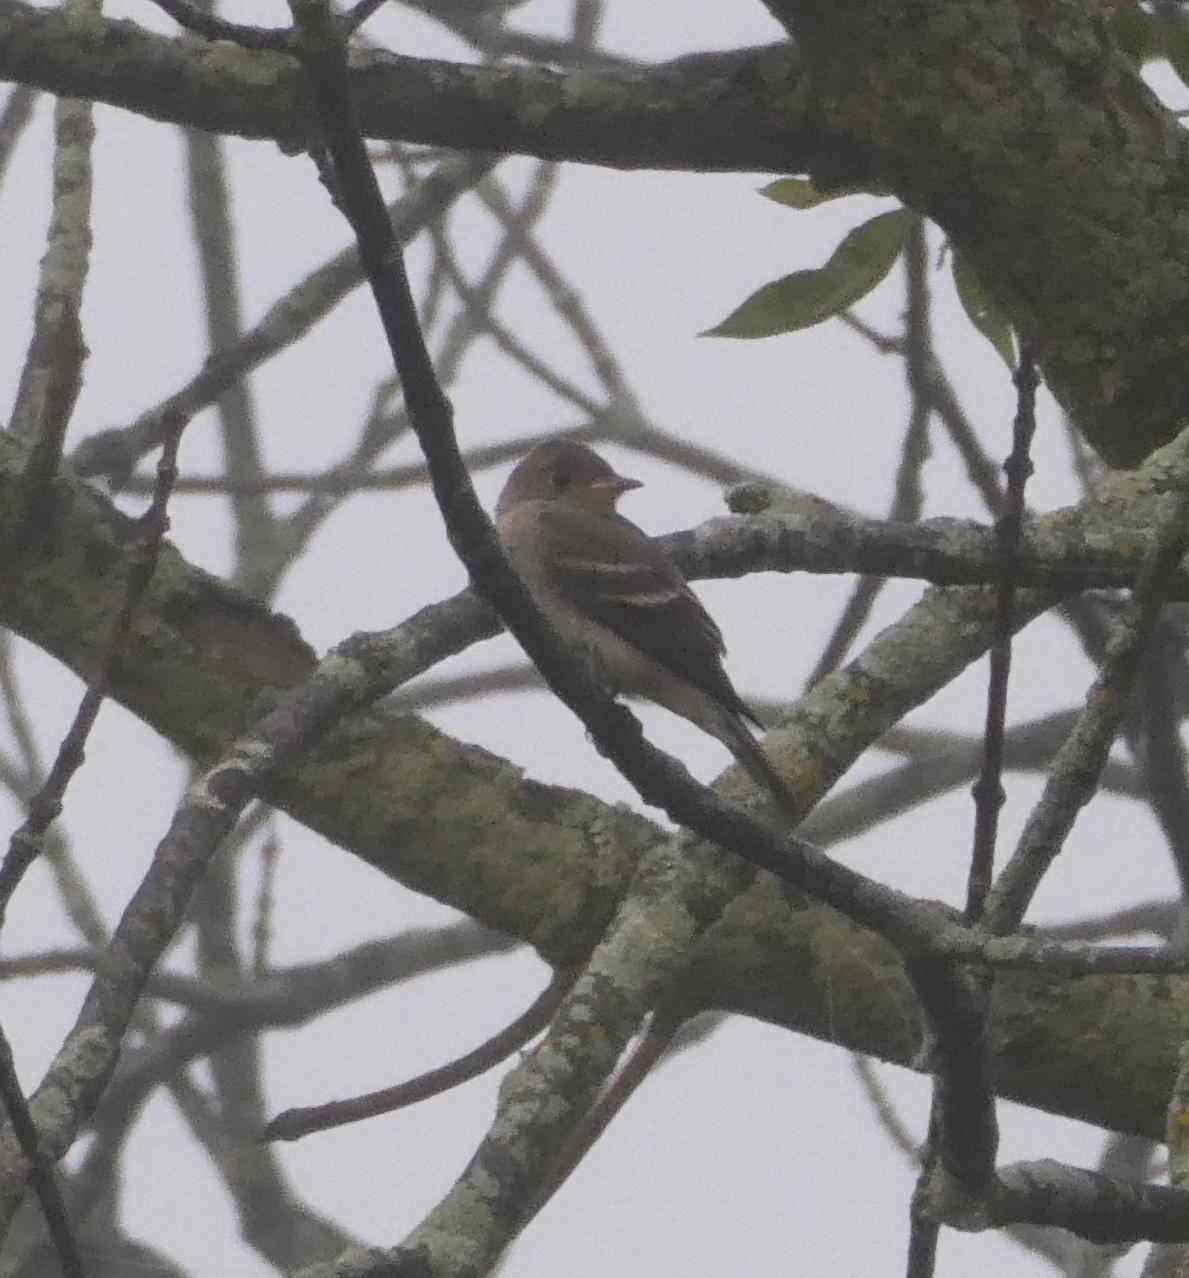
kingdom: Animalia
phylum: Chordata
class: Aves
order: Passeriformes
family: Tyrannidae
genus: Contopus
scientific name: Contopus virens
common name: Eastern wood-pewee
